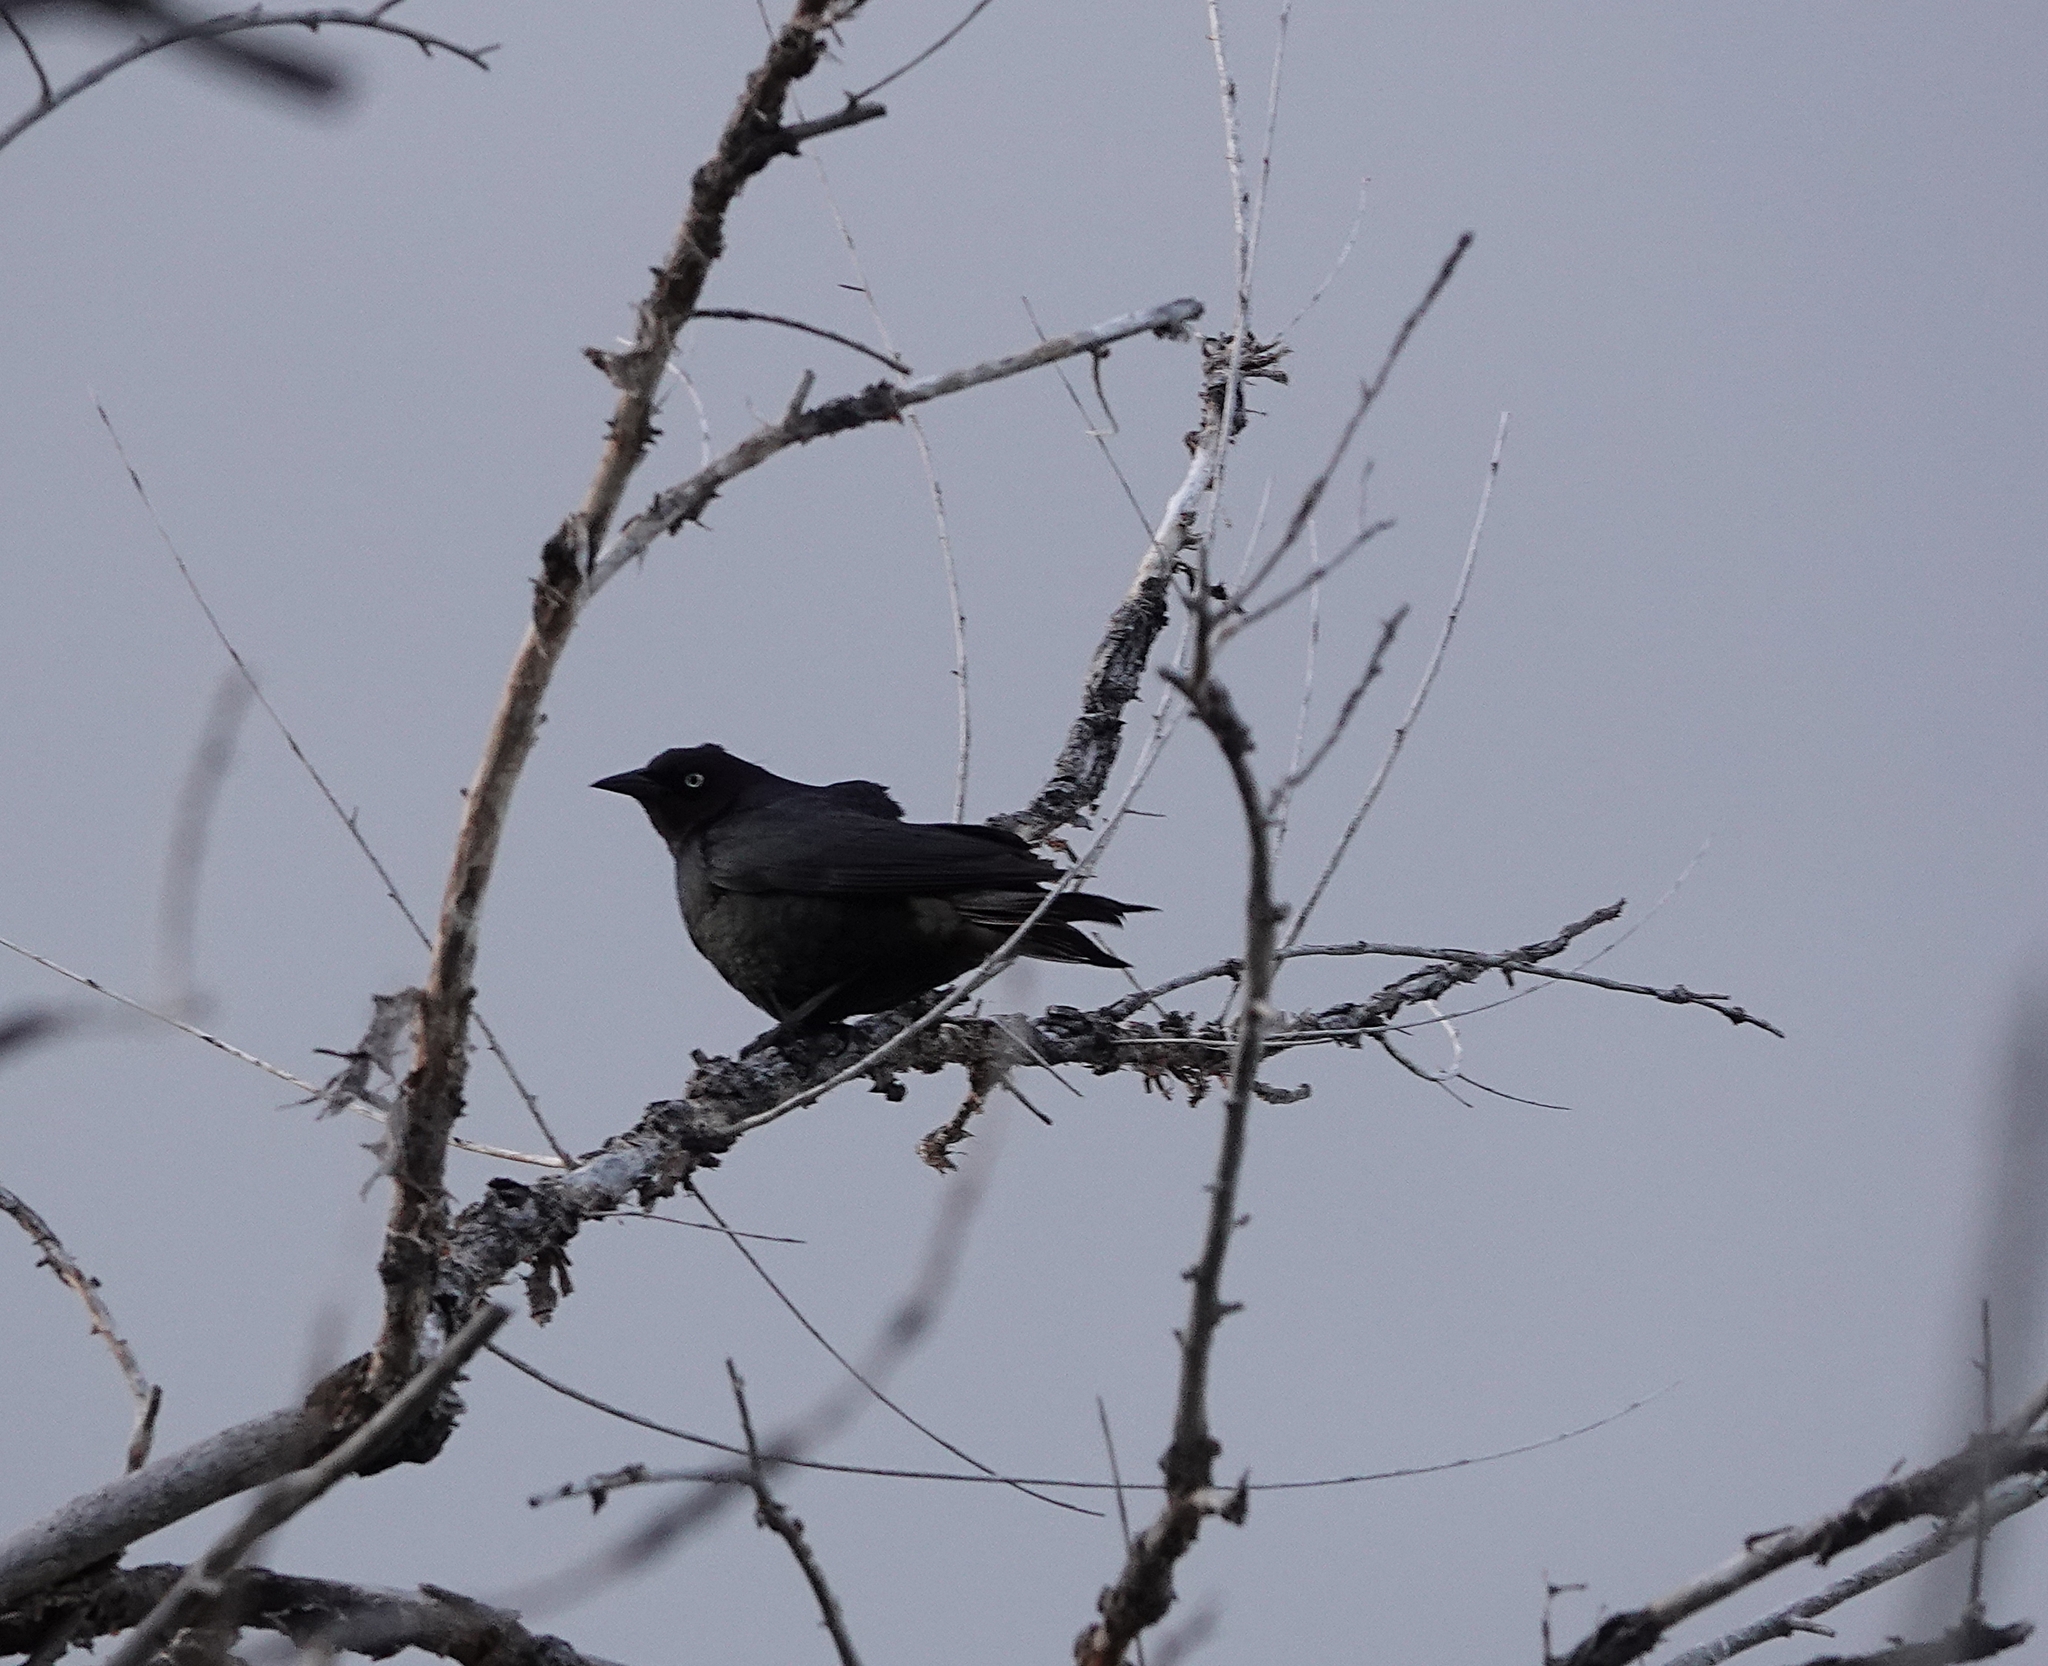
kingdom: Animalia
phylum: Chordata
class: Aves
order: Passeriformes
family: Icteridae
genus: Euphagus
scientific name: Euphagus cyanocephalus
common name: Brewer's blackbird
